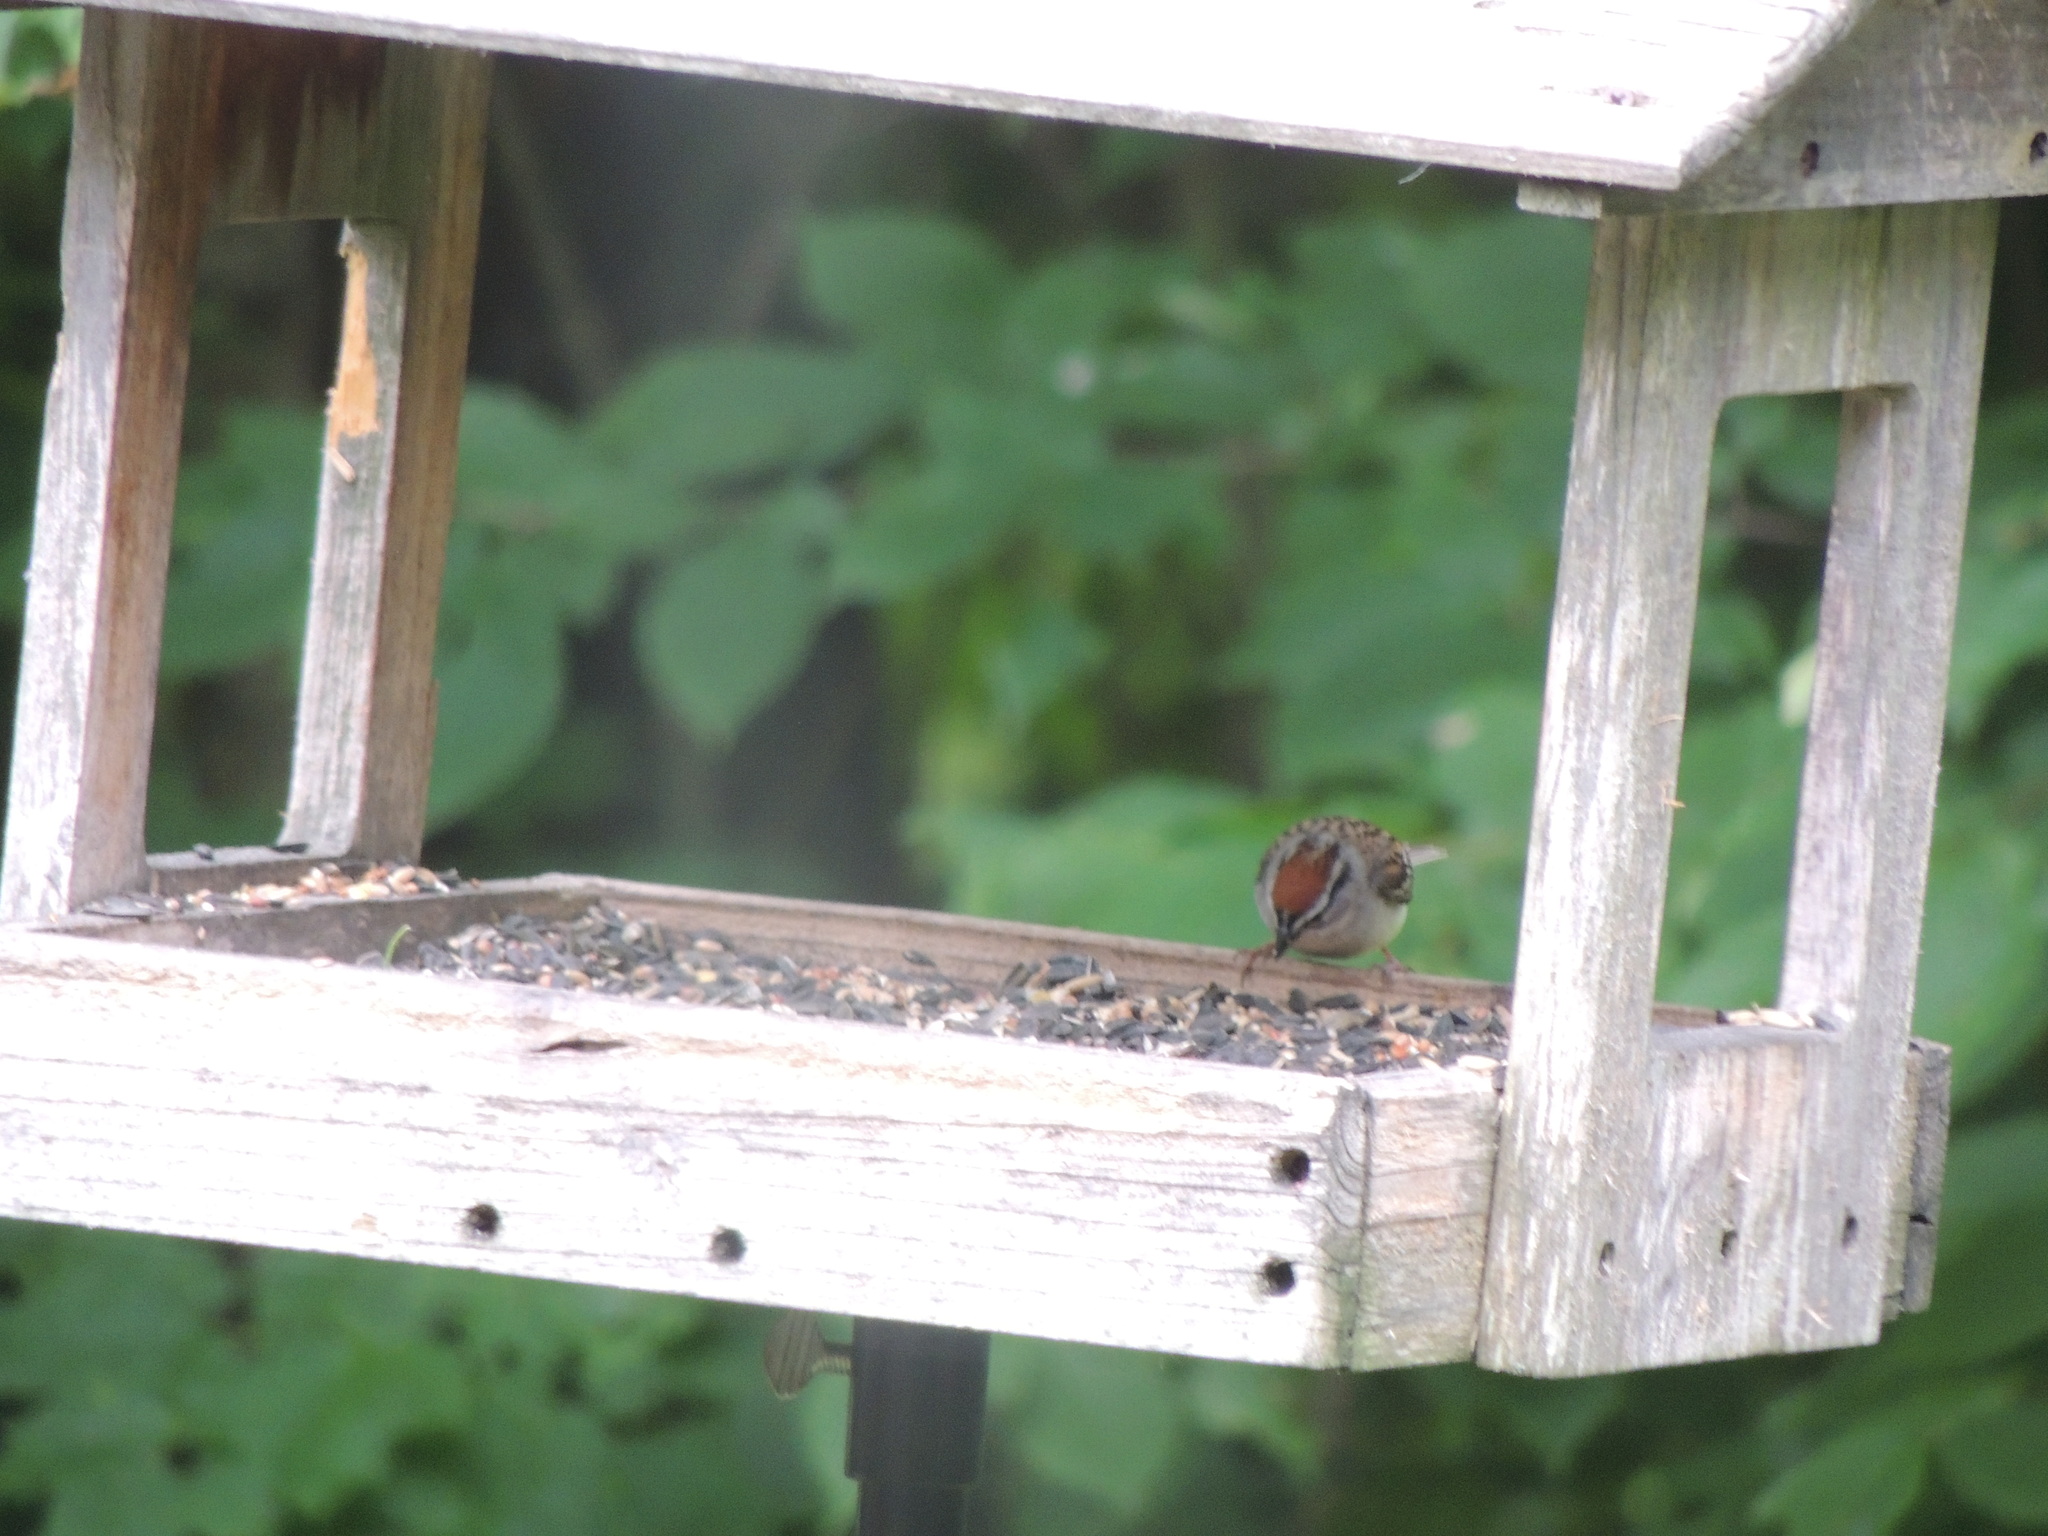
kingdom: Animalia
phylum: Chordata
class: Aves
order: Passeriformes
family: Passerellidae
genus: Spizella
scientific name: Spizella passerina
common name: Chipping sparrow
